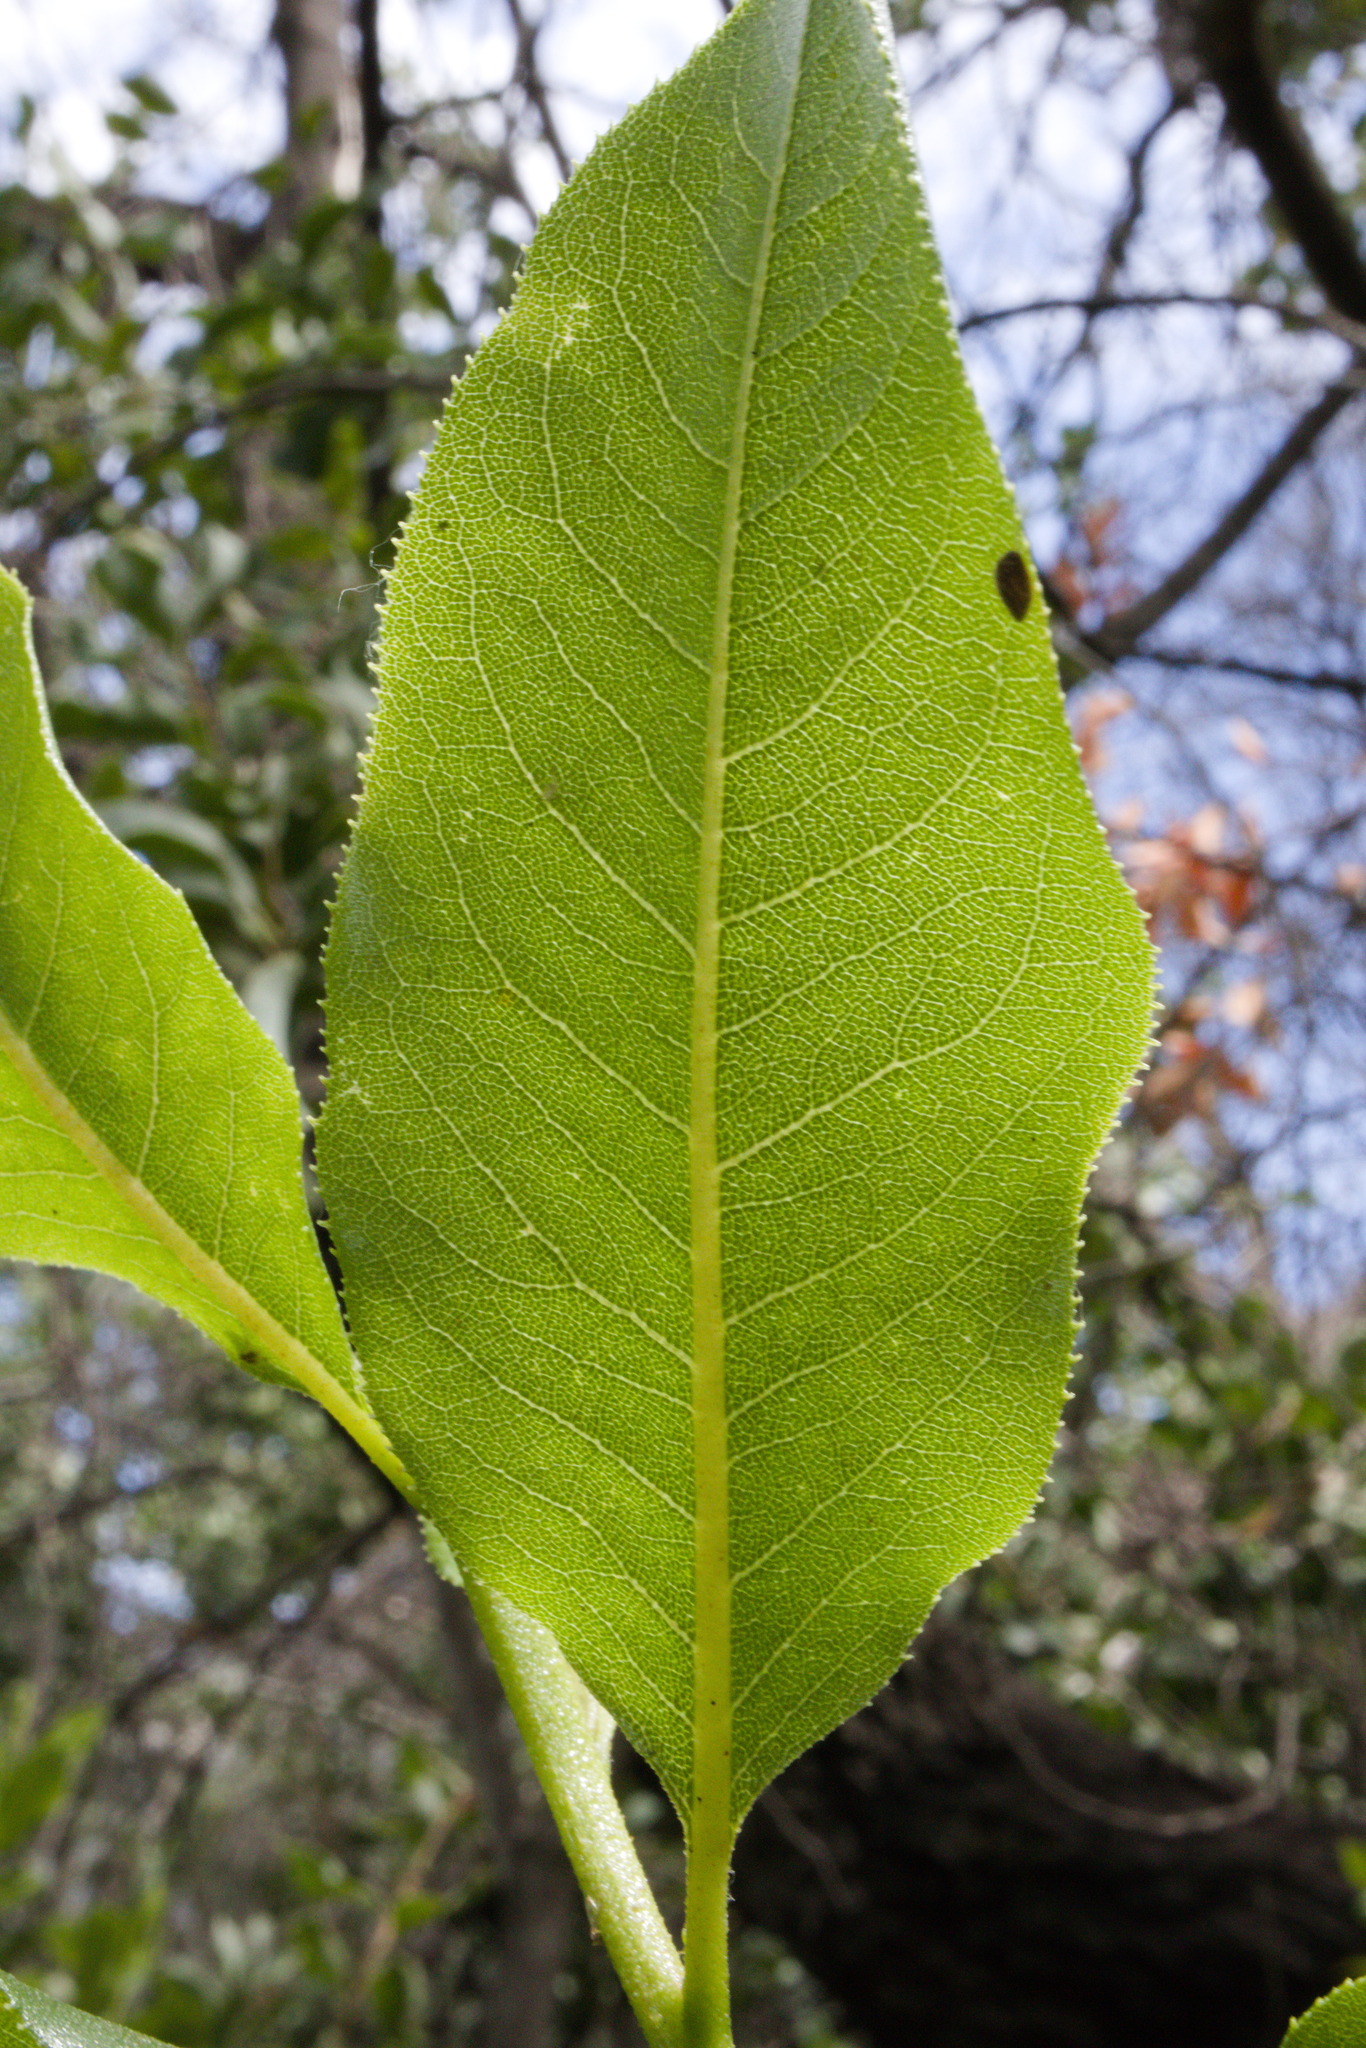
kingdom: Plantae
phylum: Tracheophyta
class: Magnoliopsida
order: Escalloniales
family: Escalloniaceae
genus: Escallonia
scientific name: Escallonia pulverulenta
